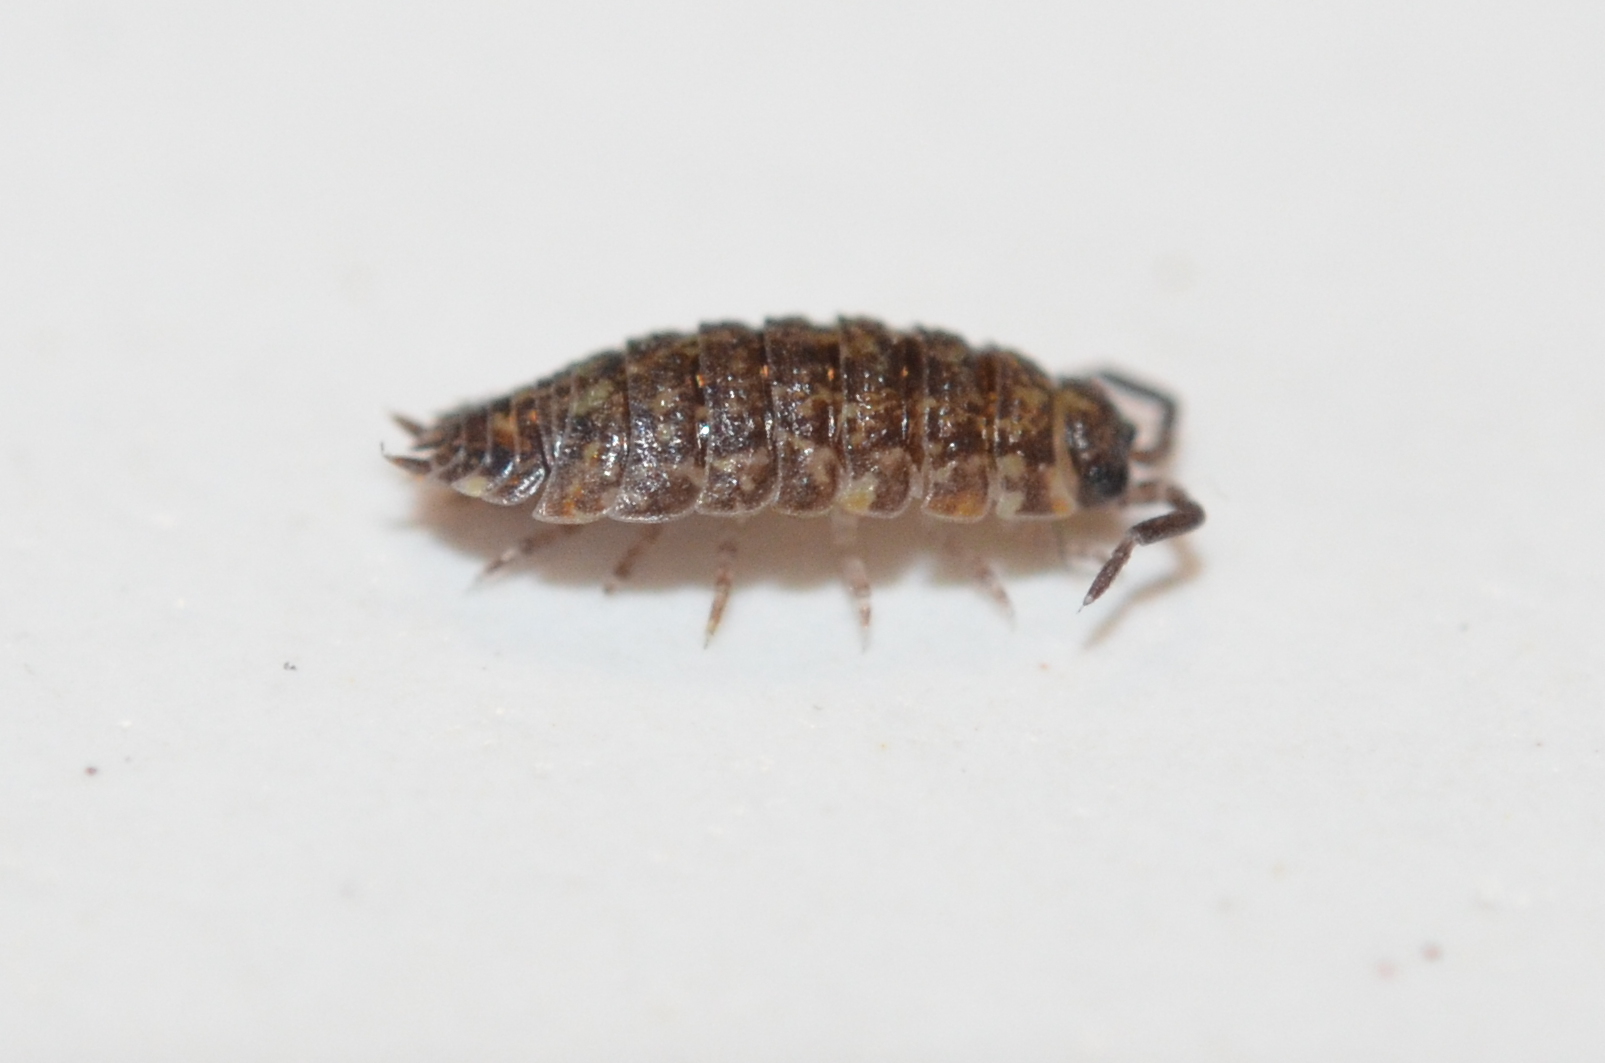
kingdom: Animalia
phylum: Arthropoda
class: Malacostraca
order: Isopoda
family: Porcellionidae
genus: Porcellio
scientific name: Porcellio scaber
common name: Common rough woodlouse
